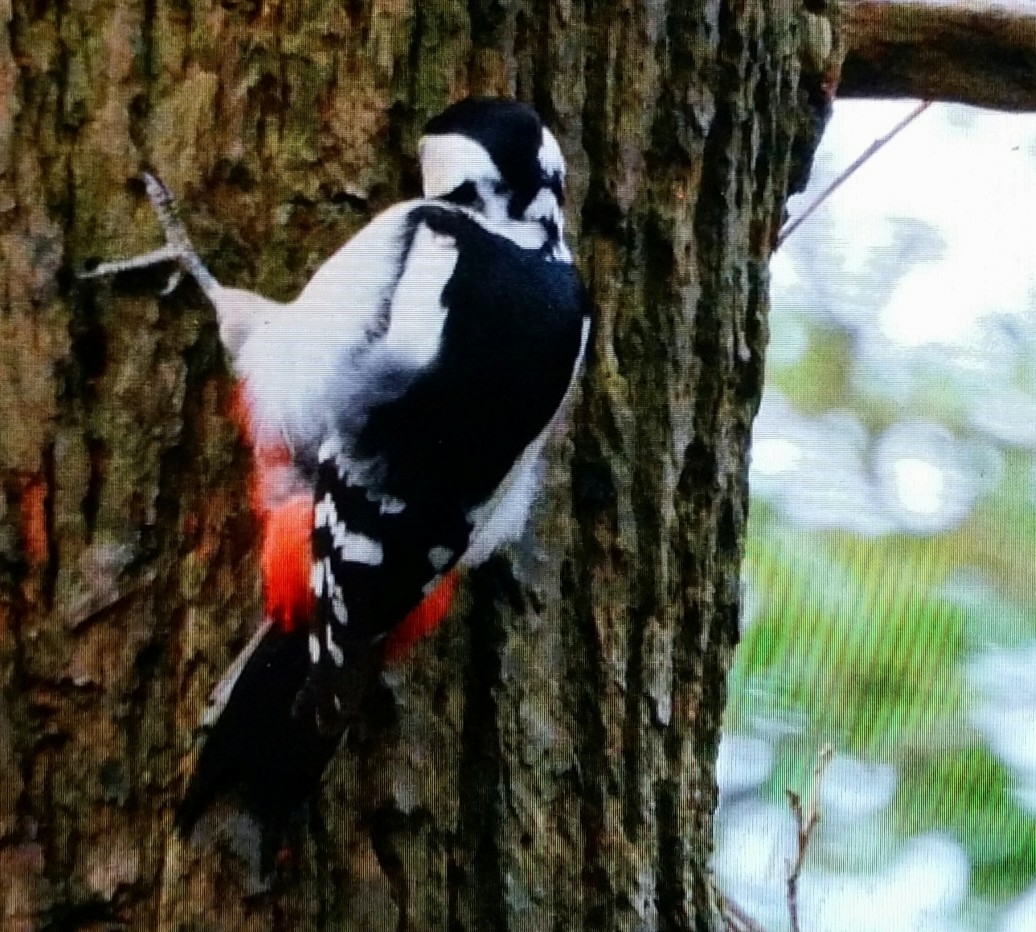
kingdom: Animalia
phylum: Chordata
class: Aves
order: Piciformes
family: Picidae
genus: Dendrocopos
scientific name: Dendrocopos major
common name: Great spotted woodpecker
